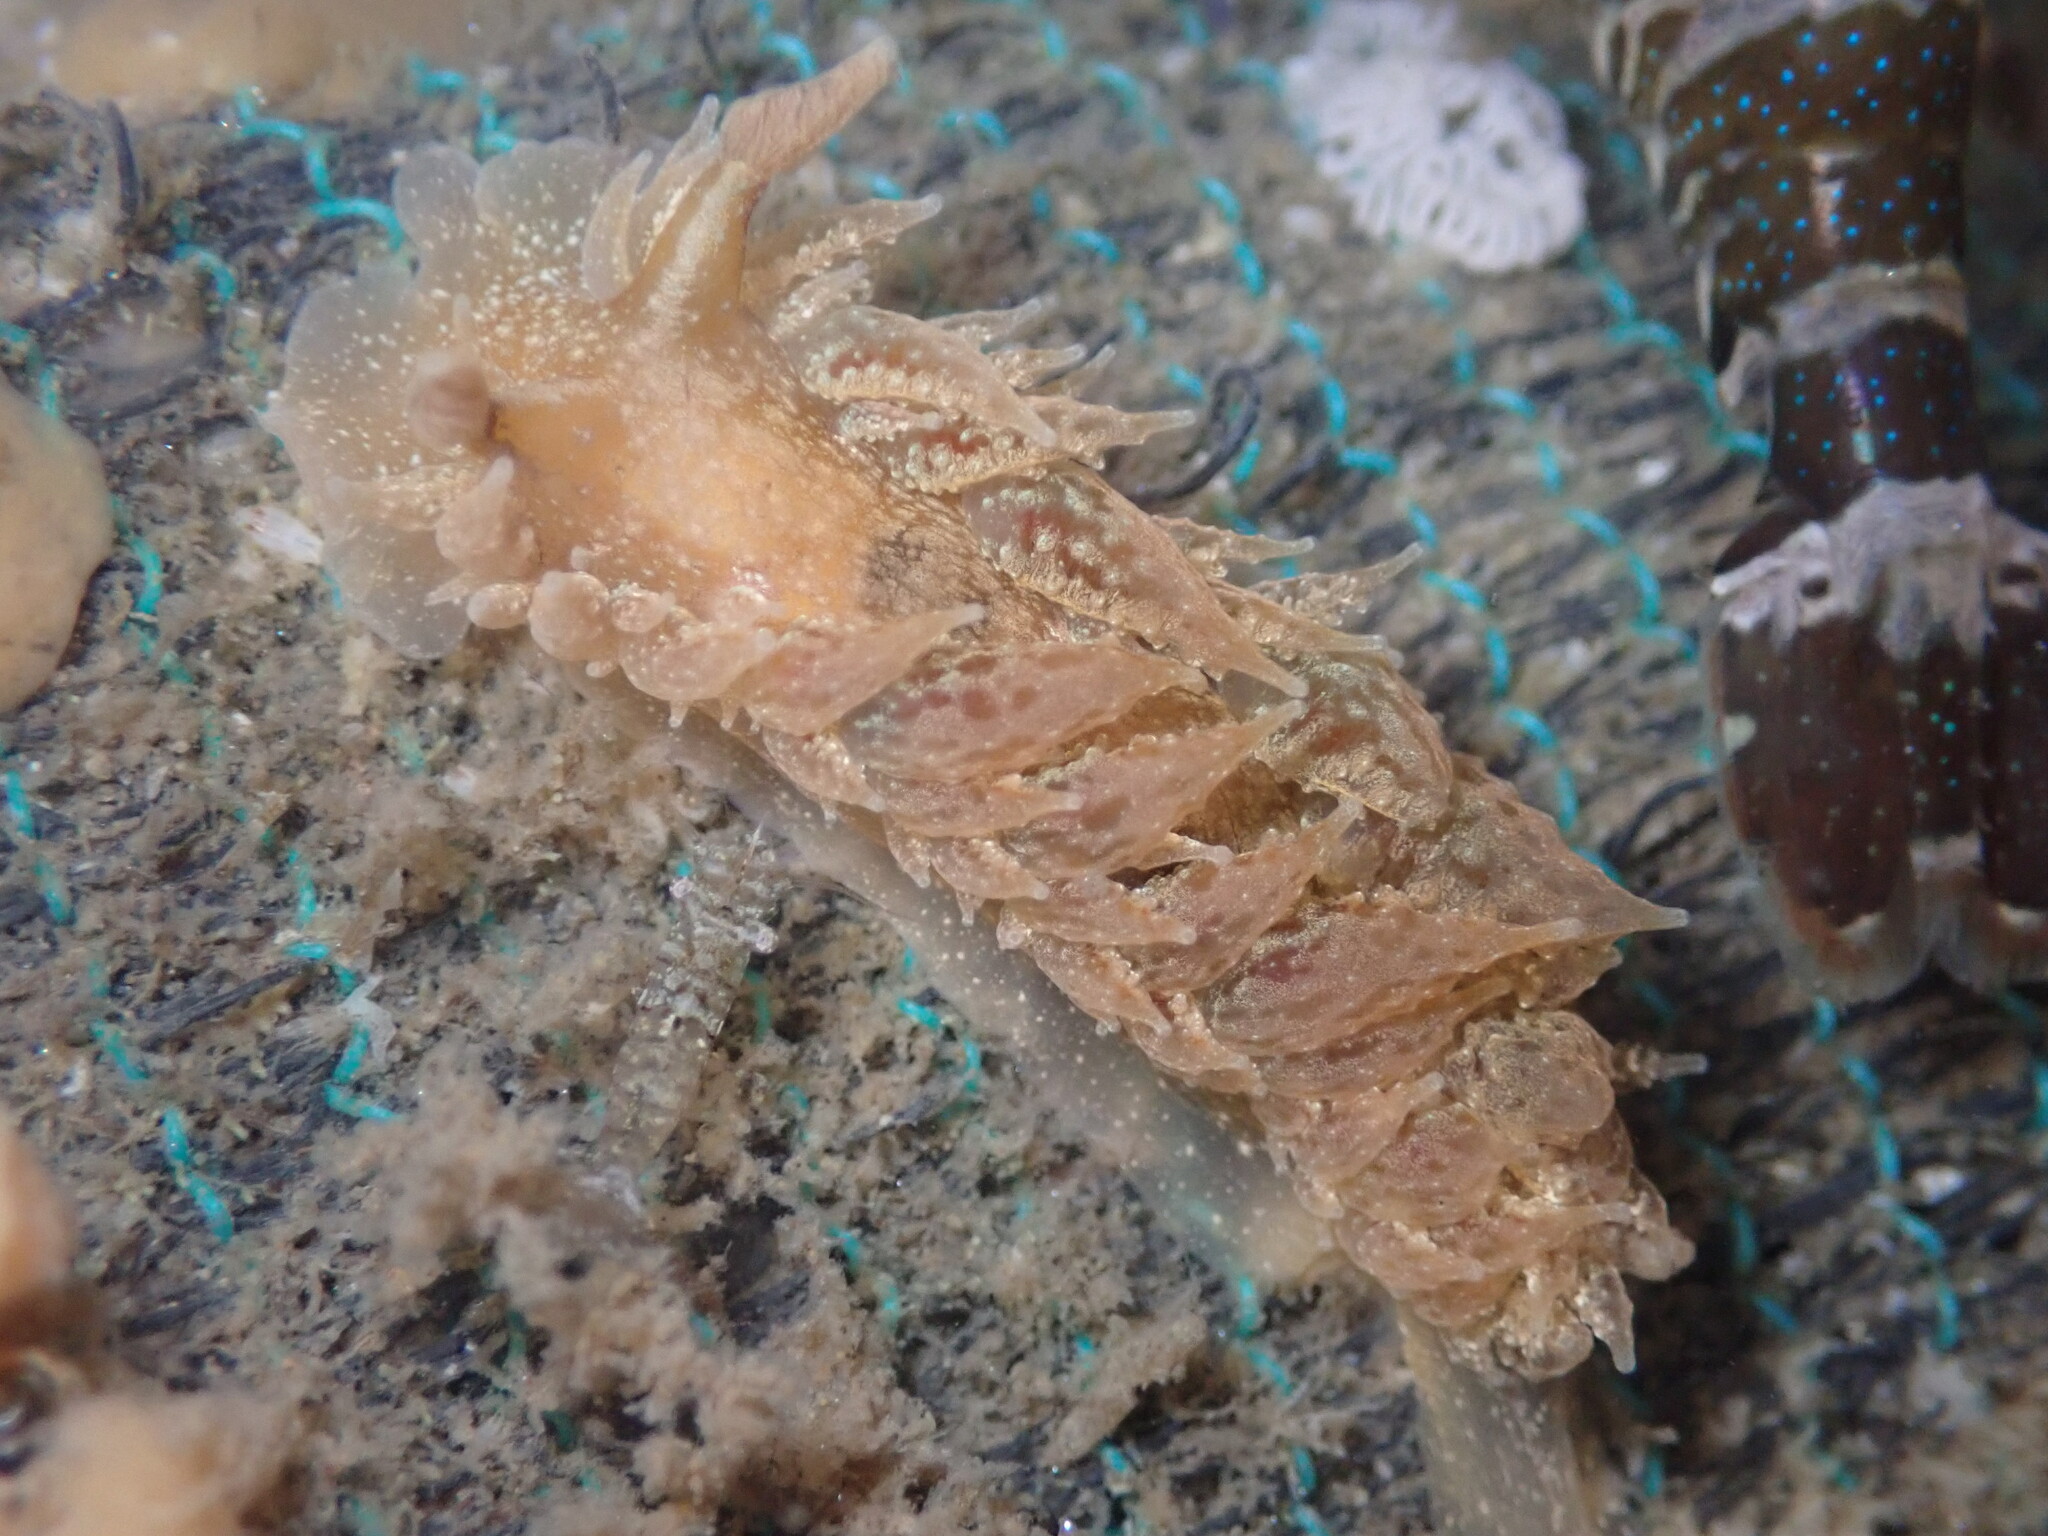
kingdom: Animalia
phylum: Mollusca
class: Gastropoda
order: Nudibranchia
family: Dironidae
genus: Dirona
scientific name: Dirona picta
